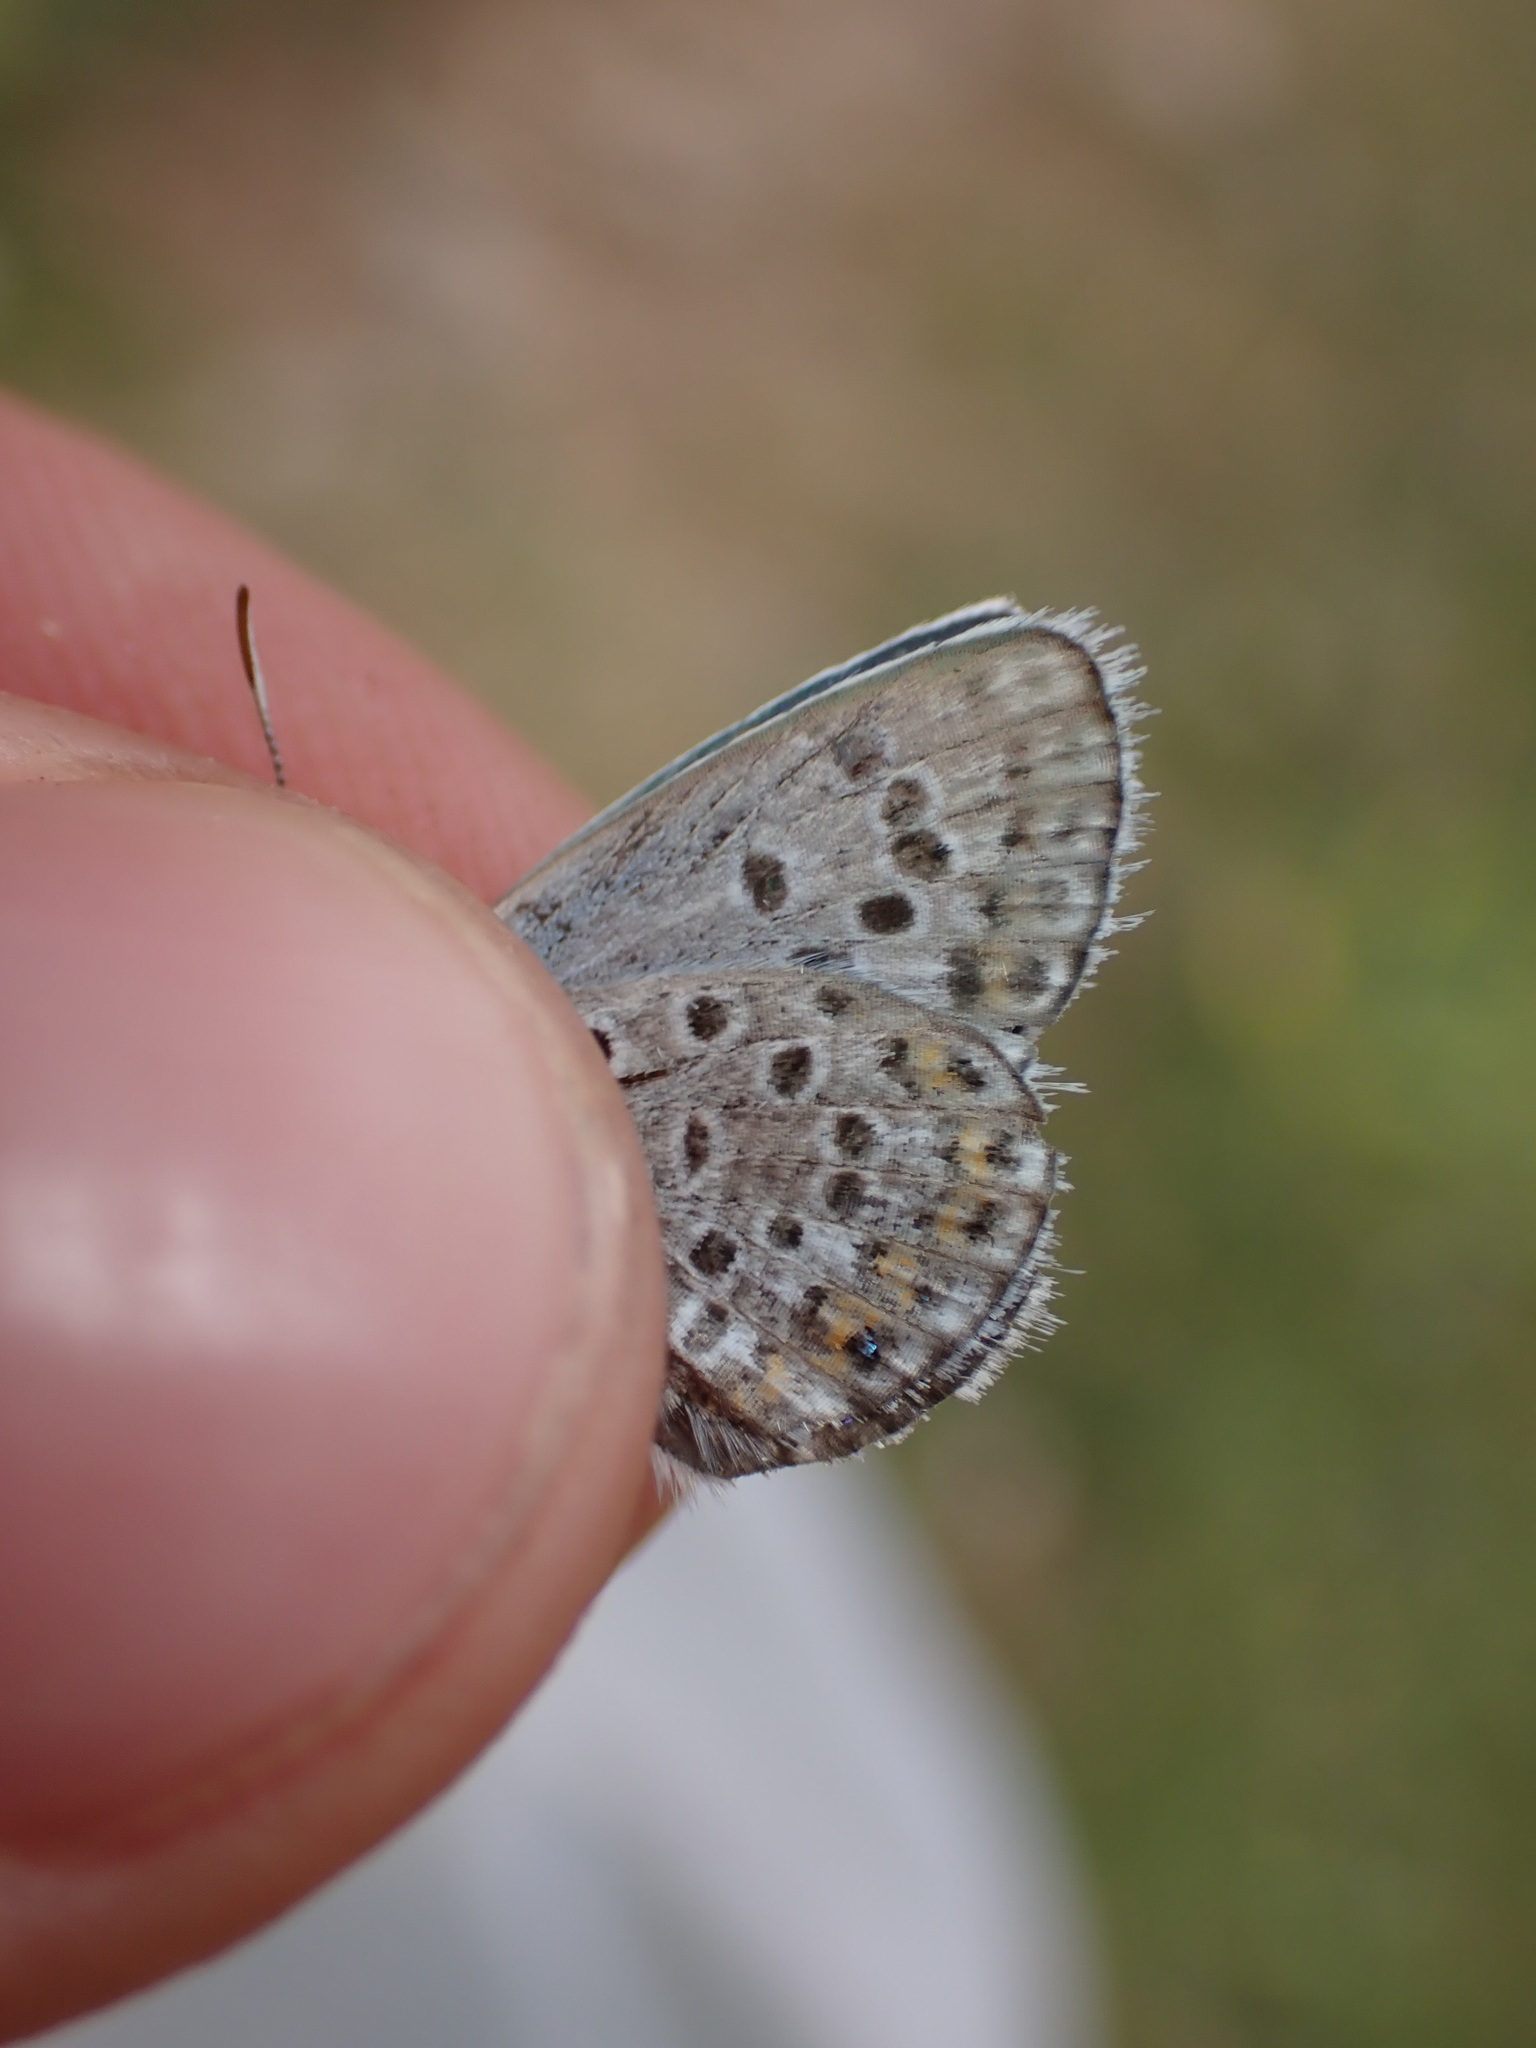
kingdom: Animalia
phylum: Arthropoda
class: Insecta
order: Lepidoptera
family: Lycaenidae
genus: Plebejus
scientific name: Plebejus argus
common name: Silver-studded blue
